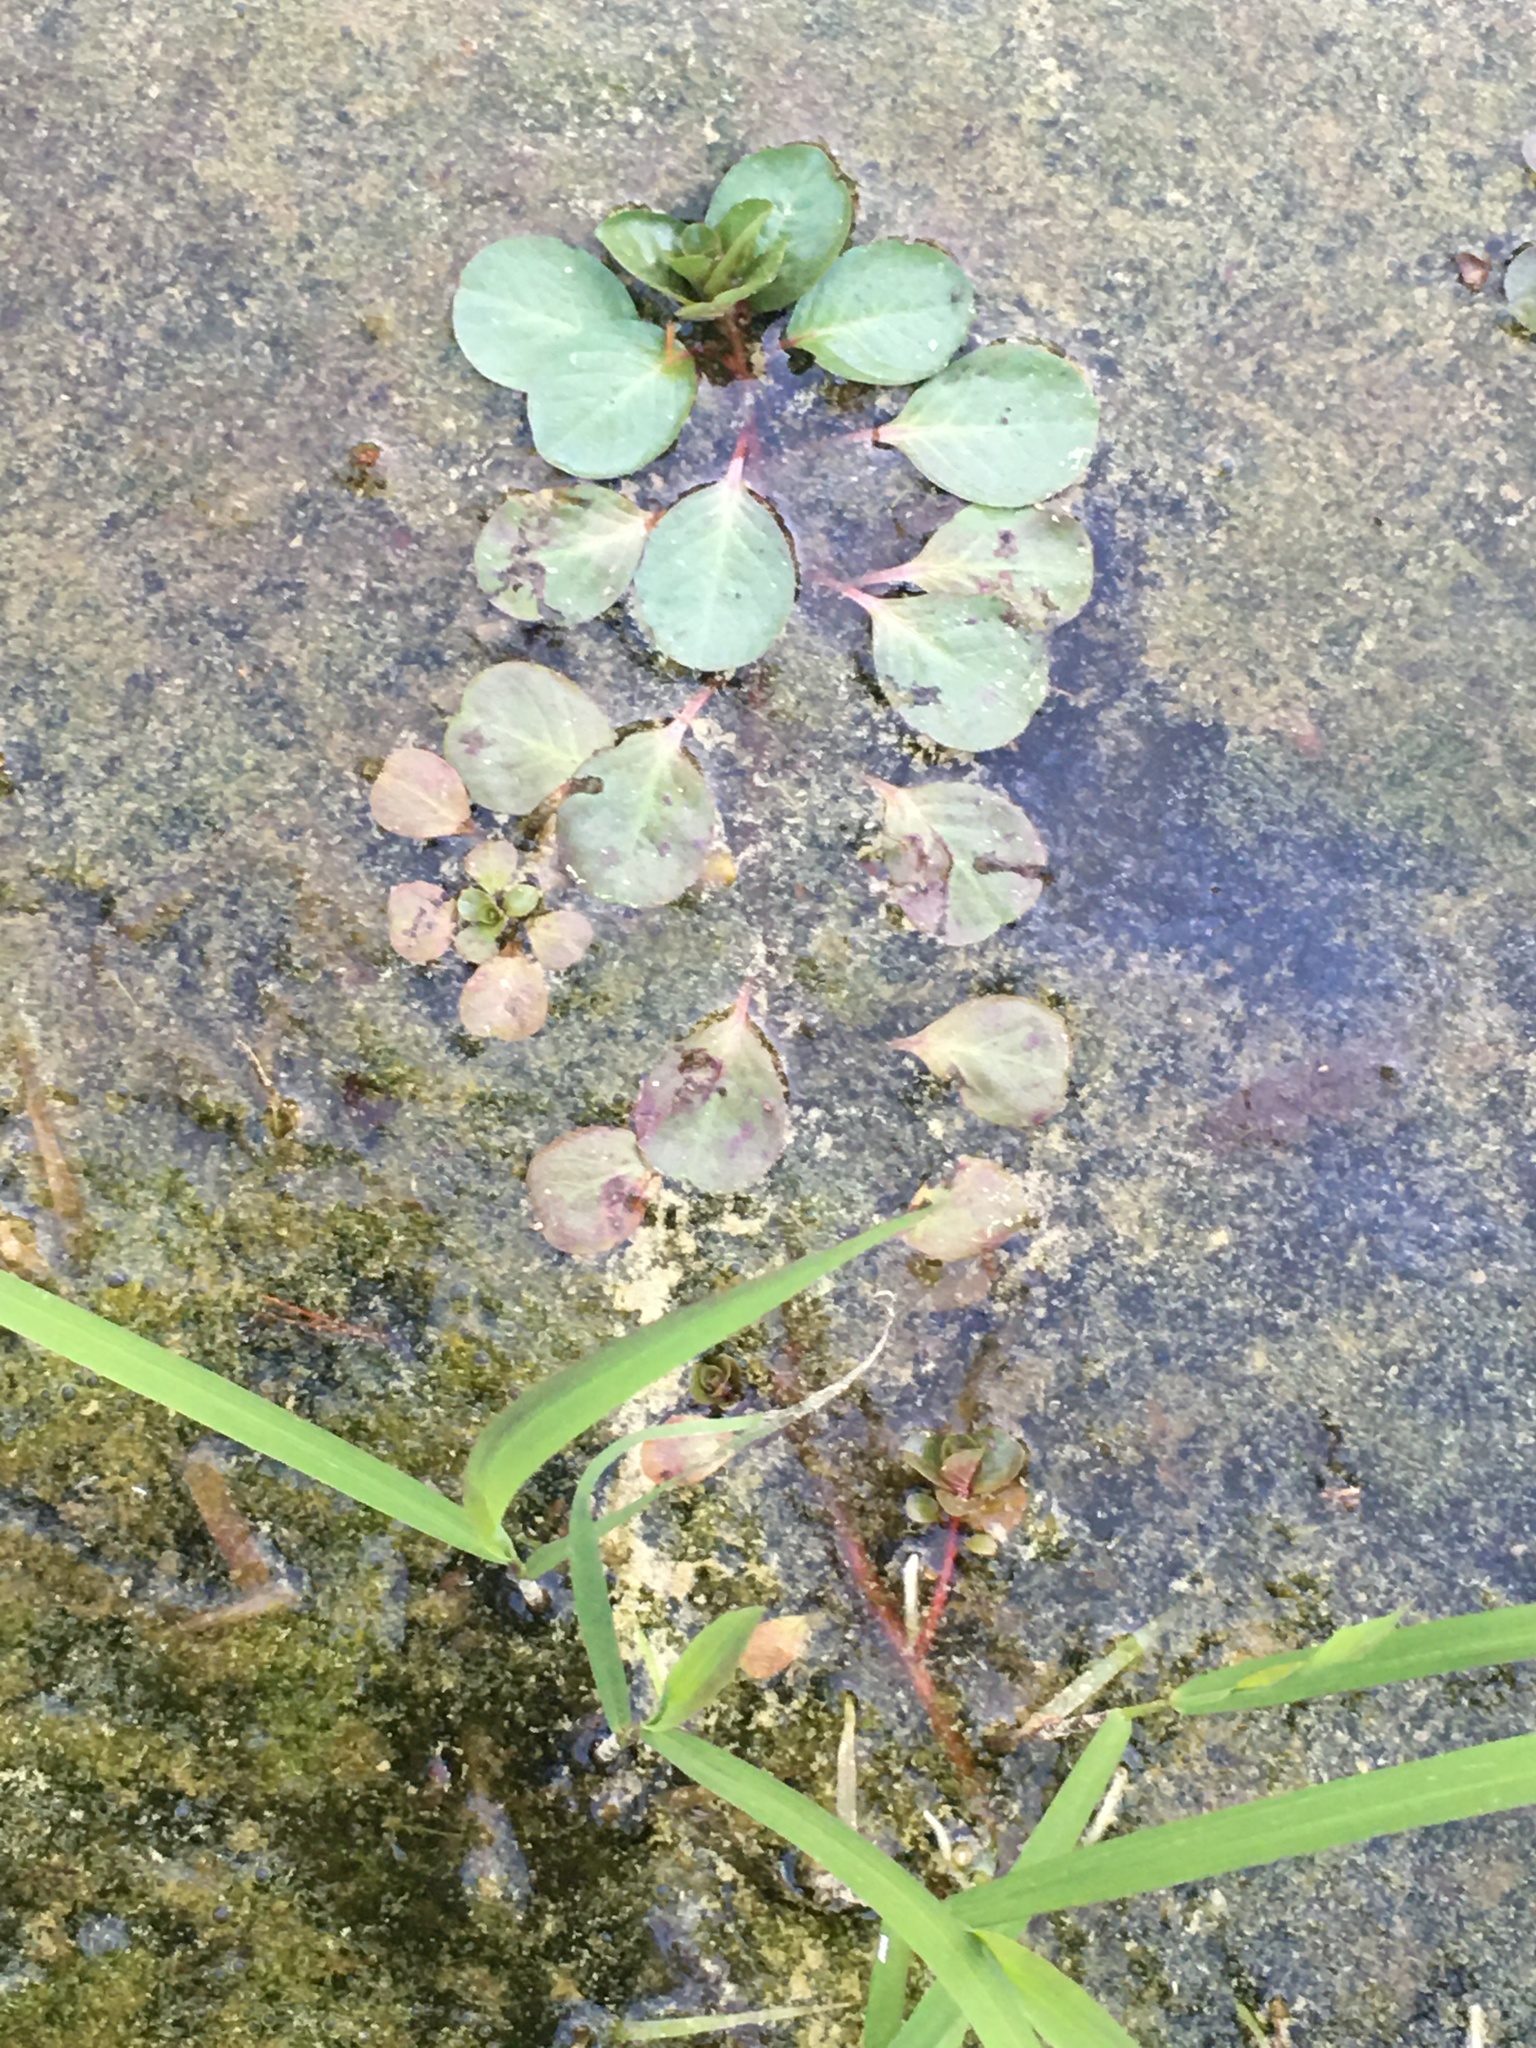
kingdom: Plantae
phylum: Tracheophyta
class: Magnoliopsida
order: Myrtales
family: Onagraceae
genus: Ludwigia
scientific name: Ludwigia peploides
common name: Floating primrose-willow
